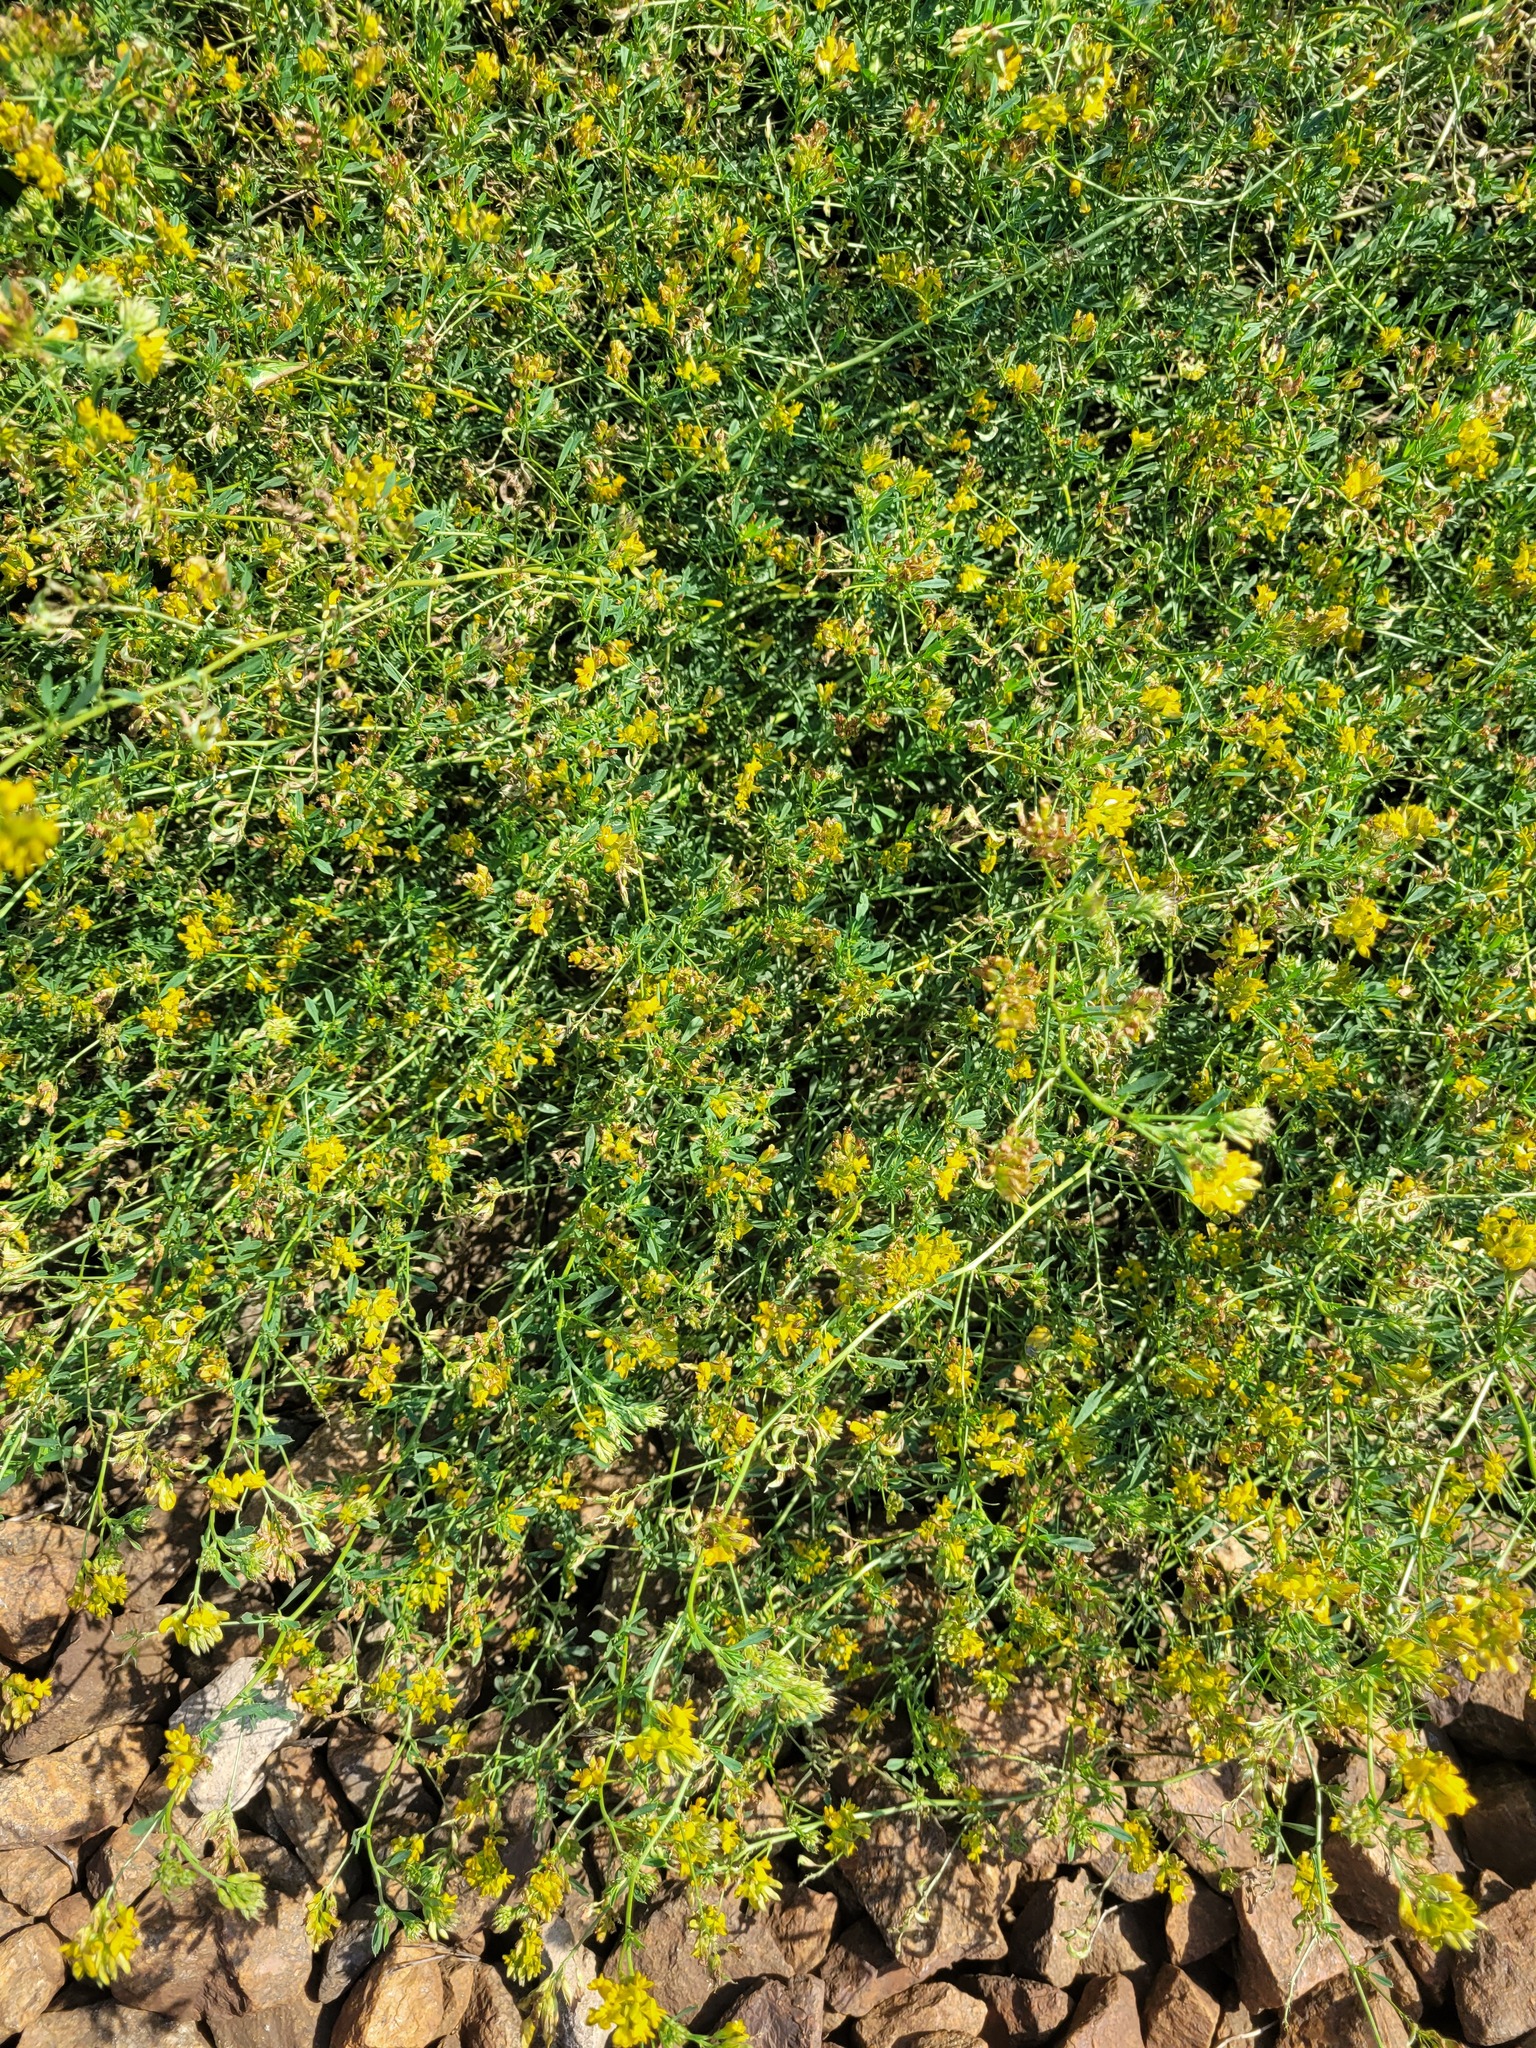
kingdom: Plantae
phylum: Tracheophyta
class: Magnoliopsida
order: Fabales
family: Fabaceae
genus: Medicago
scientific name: Medicago varia
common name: Sand lucerne
